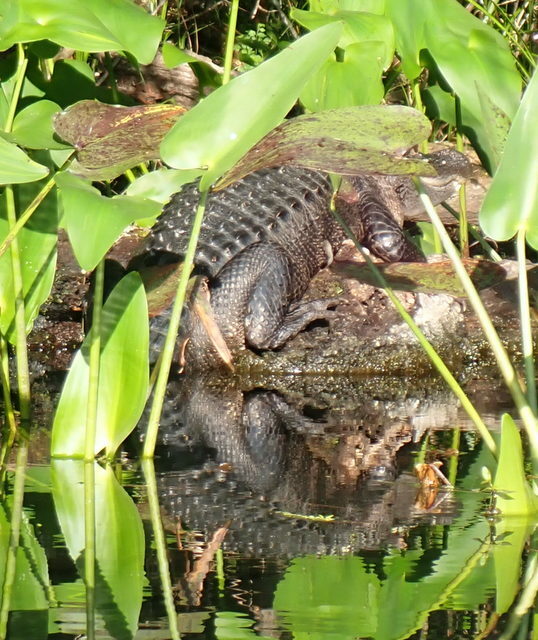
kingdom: Animalia
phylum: Chordata
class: Crocodylia
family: Alligatoridae
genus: Alligator
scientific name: Alligator mississippiensis
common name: American alligator
